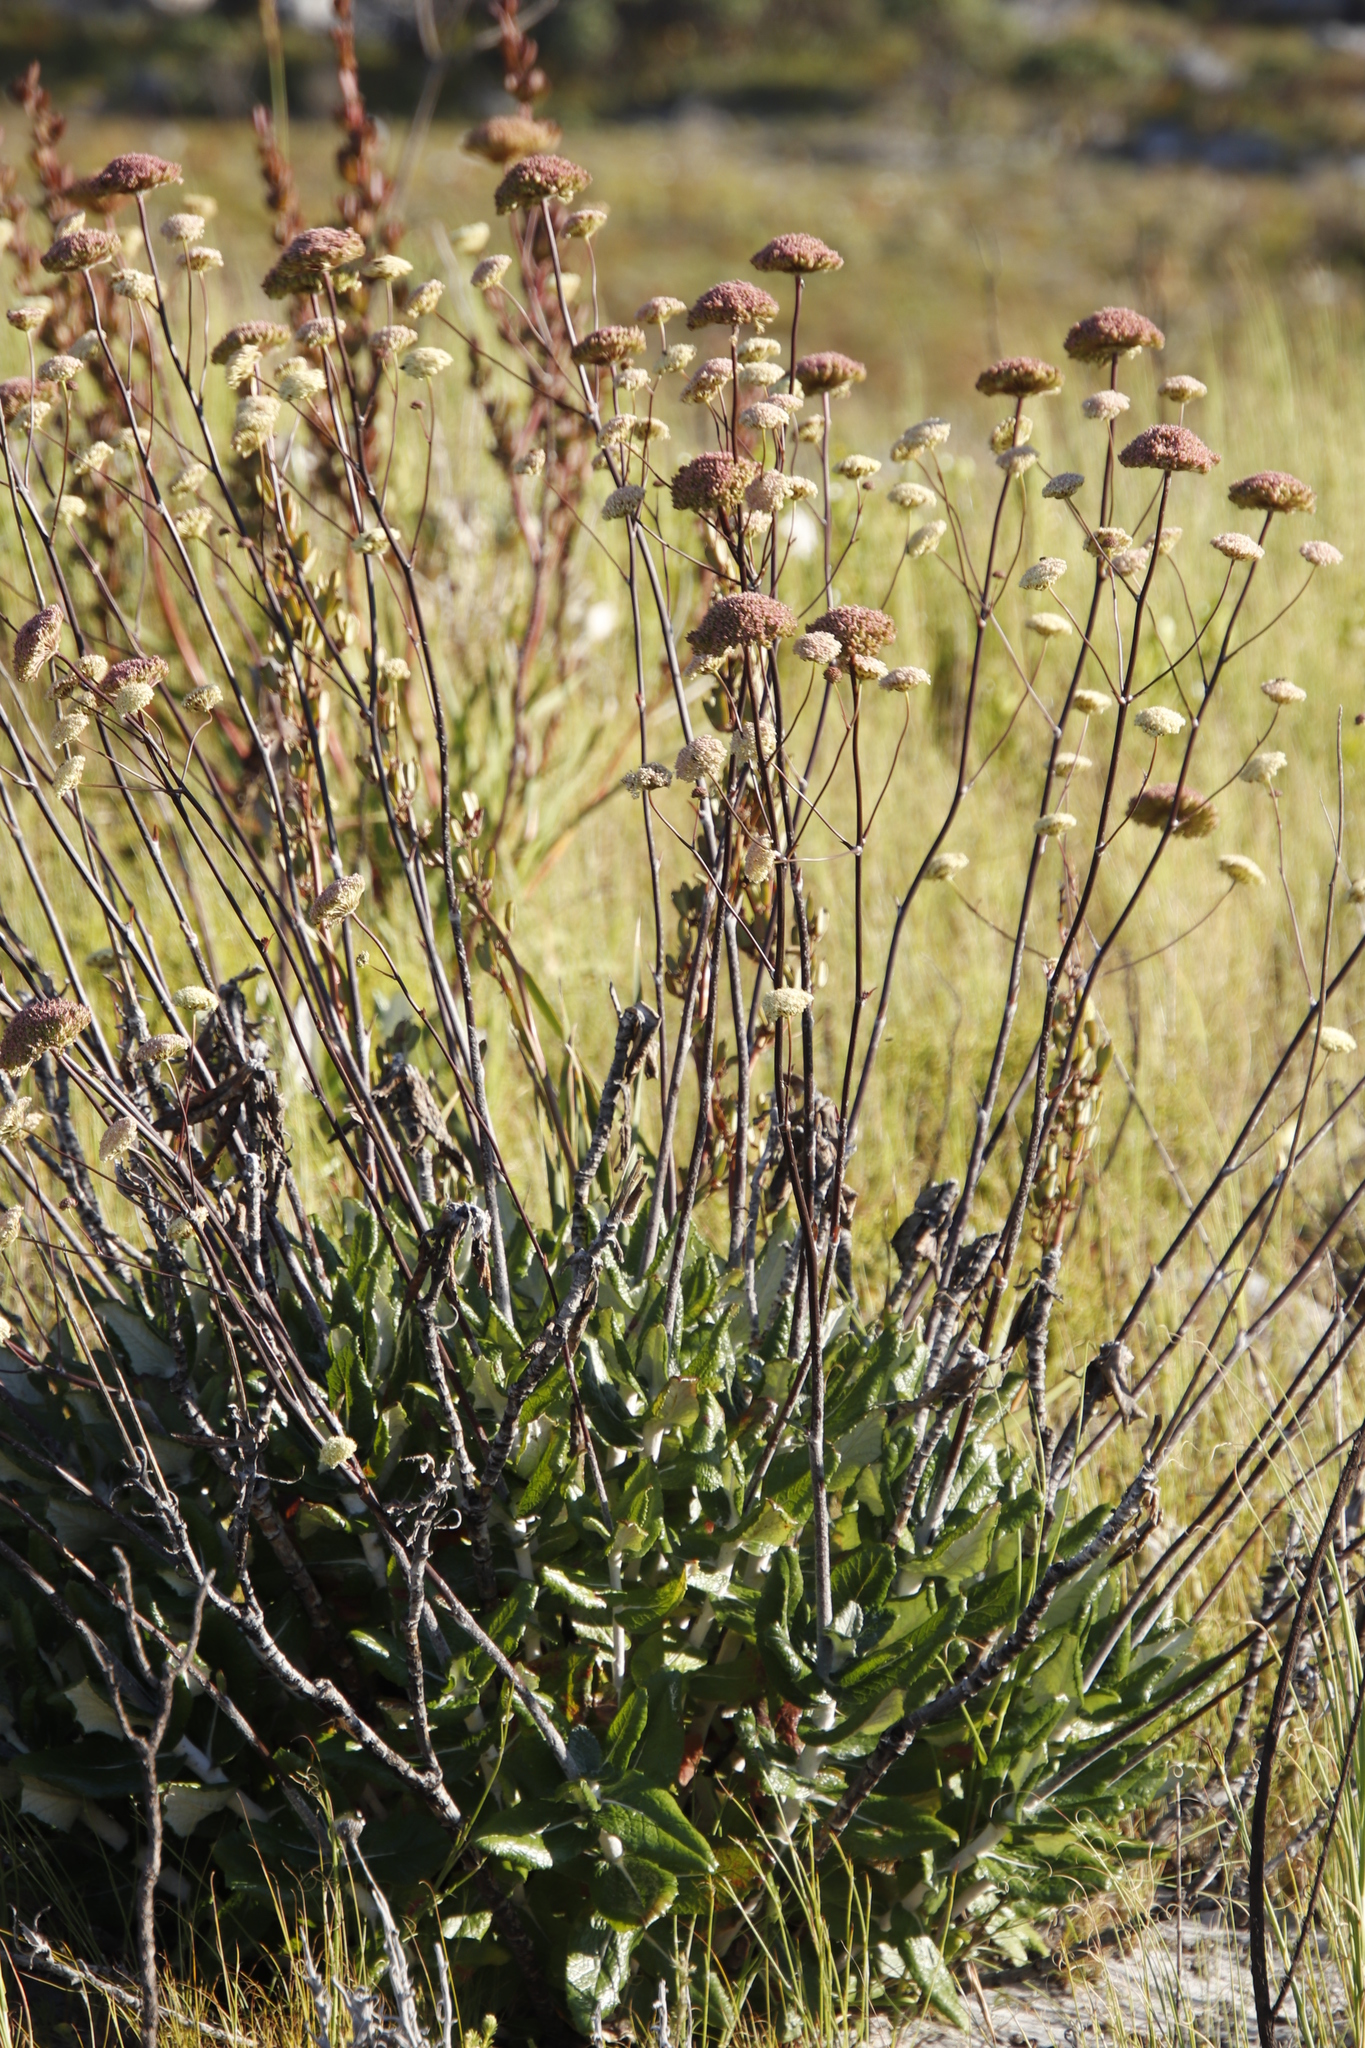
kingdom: Plantae
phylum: Tracheophyta
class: Magnoliopsida
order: Apiales
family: Apiaceae
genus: Hermas
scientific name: Hermas villosa
